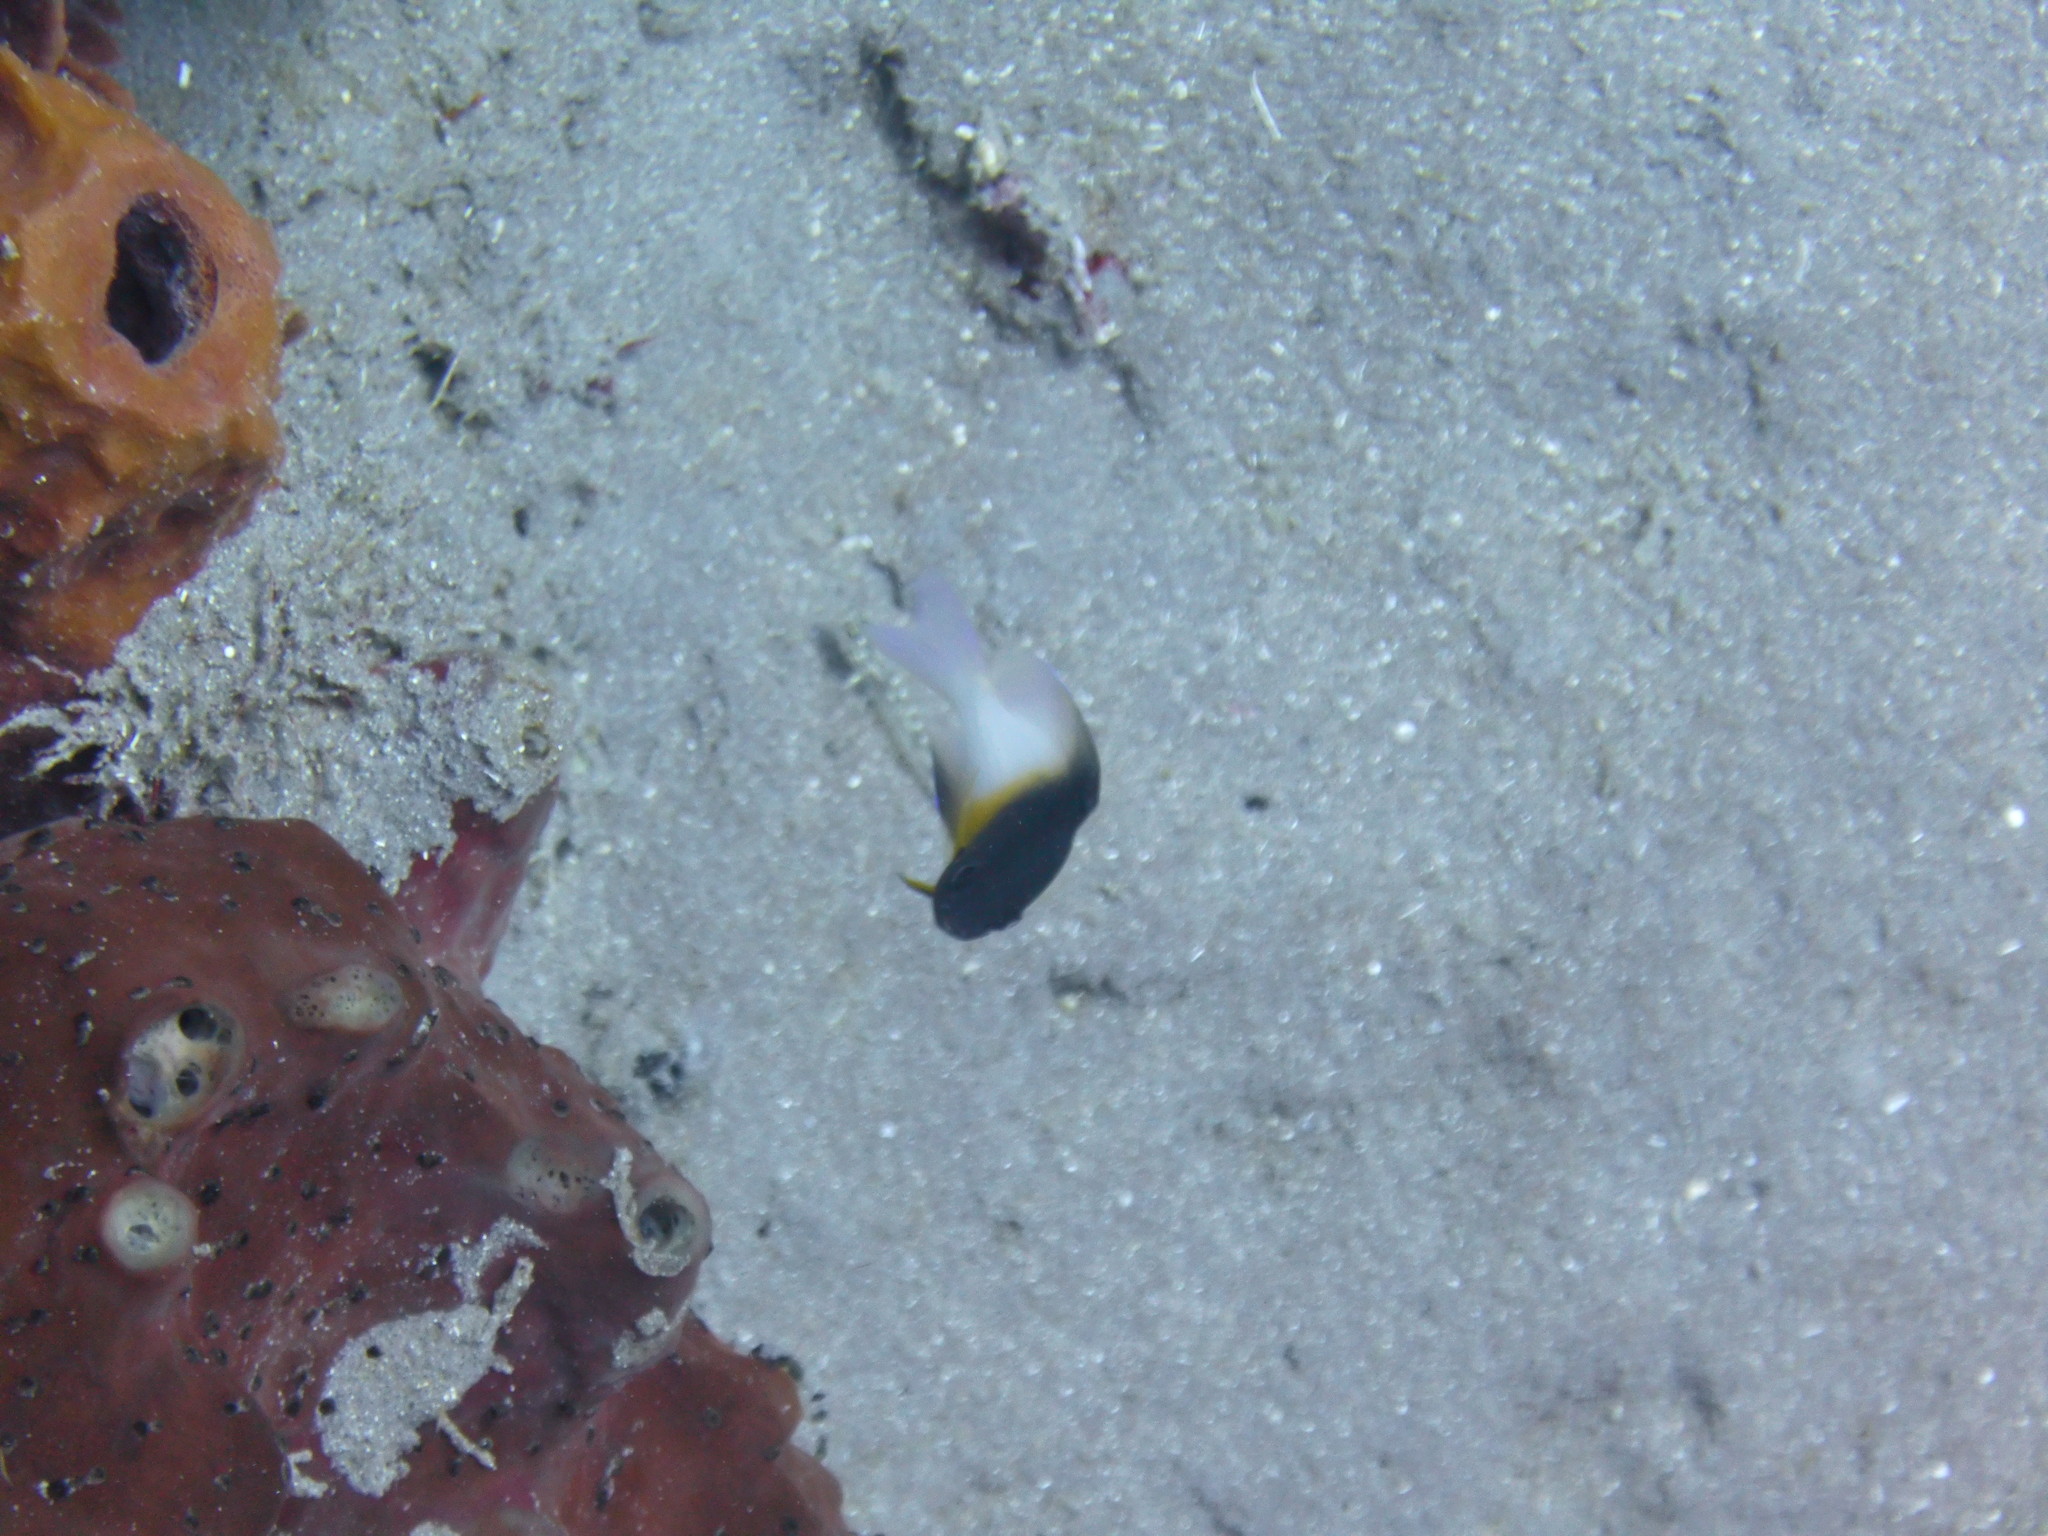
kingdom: Animalia
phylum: Chordata
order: Perciformes
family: Pomacentridae
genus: Stegastes
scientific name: Stegastes partitus
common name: Bicolor damselfish
